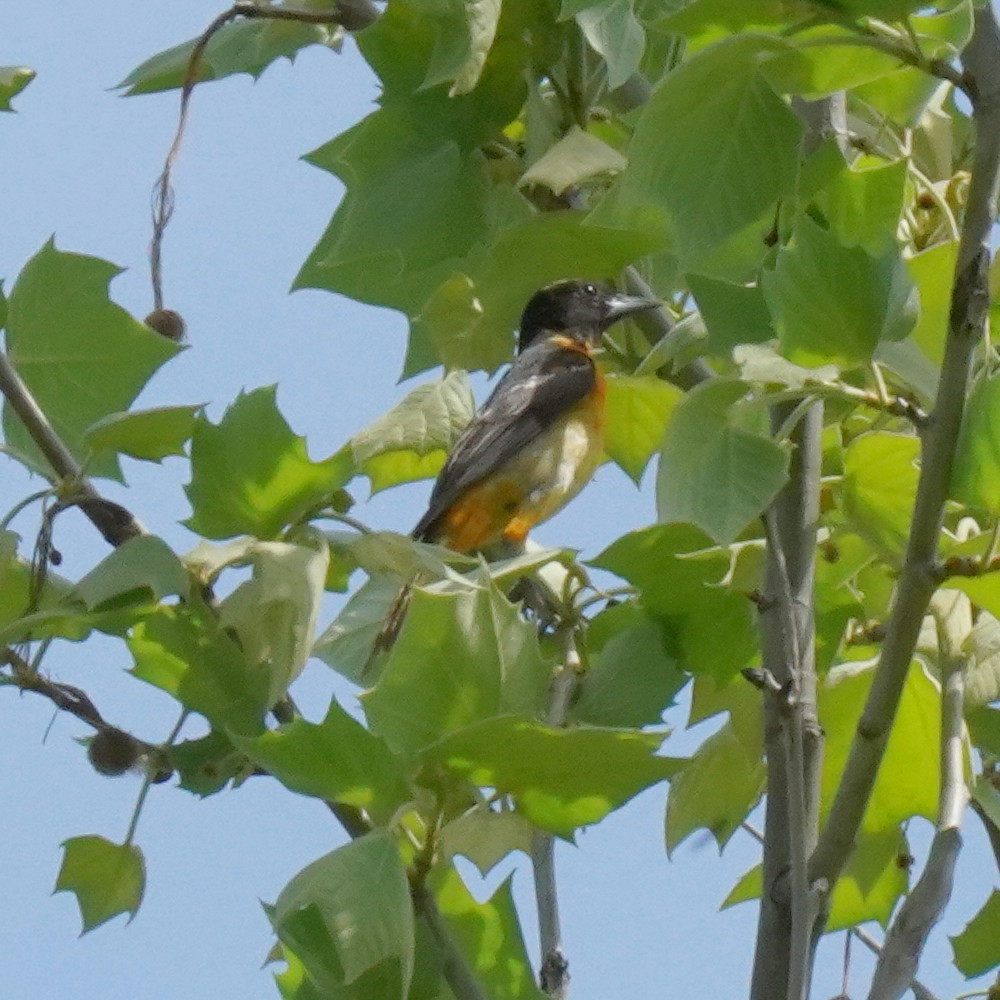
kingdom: Animalia
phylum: Chordata
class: Aves
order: Passeriformes
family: Icteridae
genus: Icterus
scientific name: Icterus galbula
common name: Baltimore oriole
